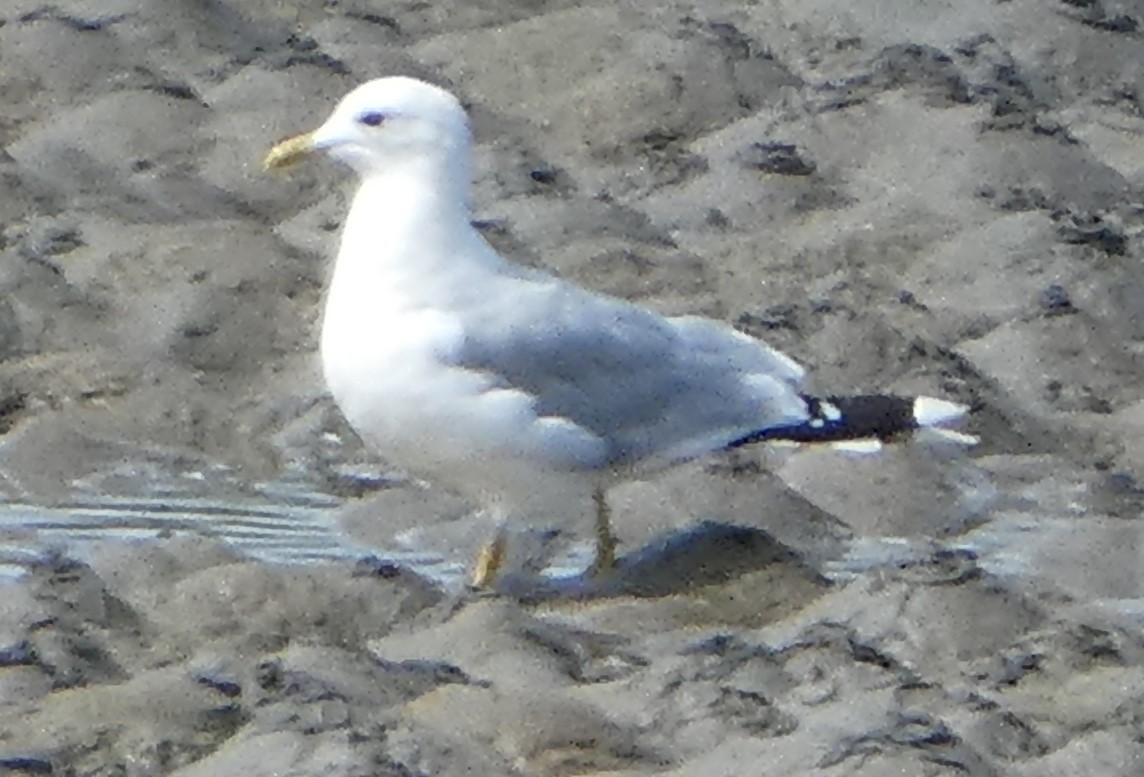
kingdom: Animalia
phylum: Chordata
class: Aves
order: Charadriiformes
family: Laridae
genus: Larus
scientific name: Larus canus
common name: Mew gull
